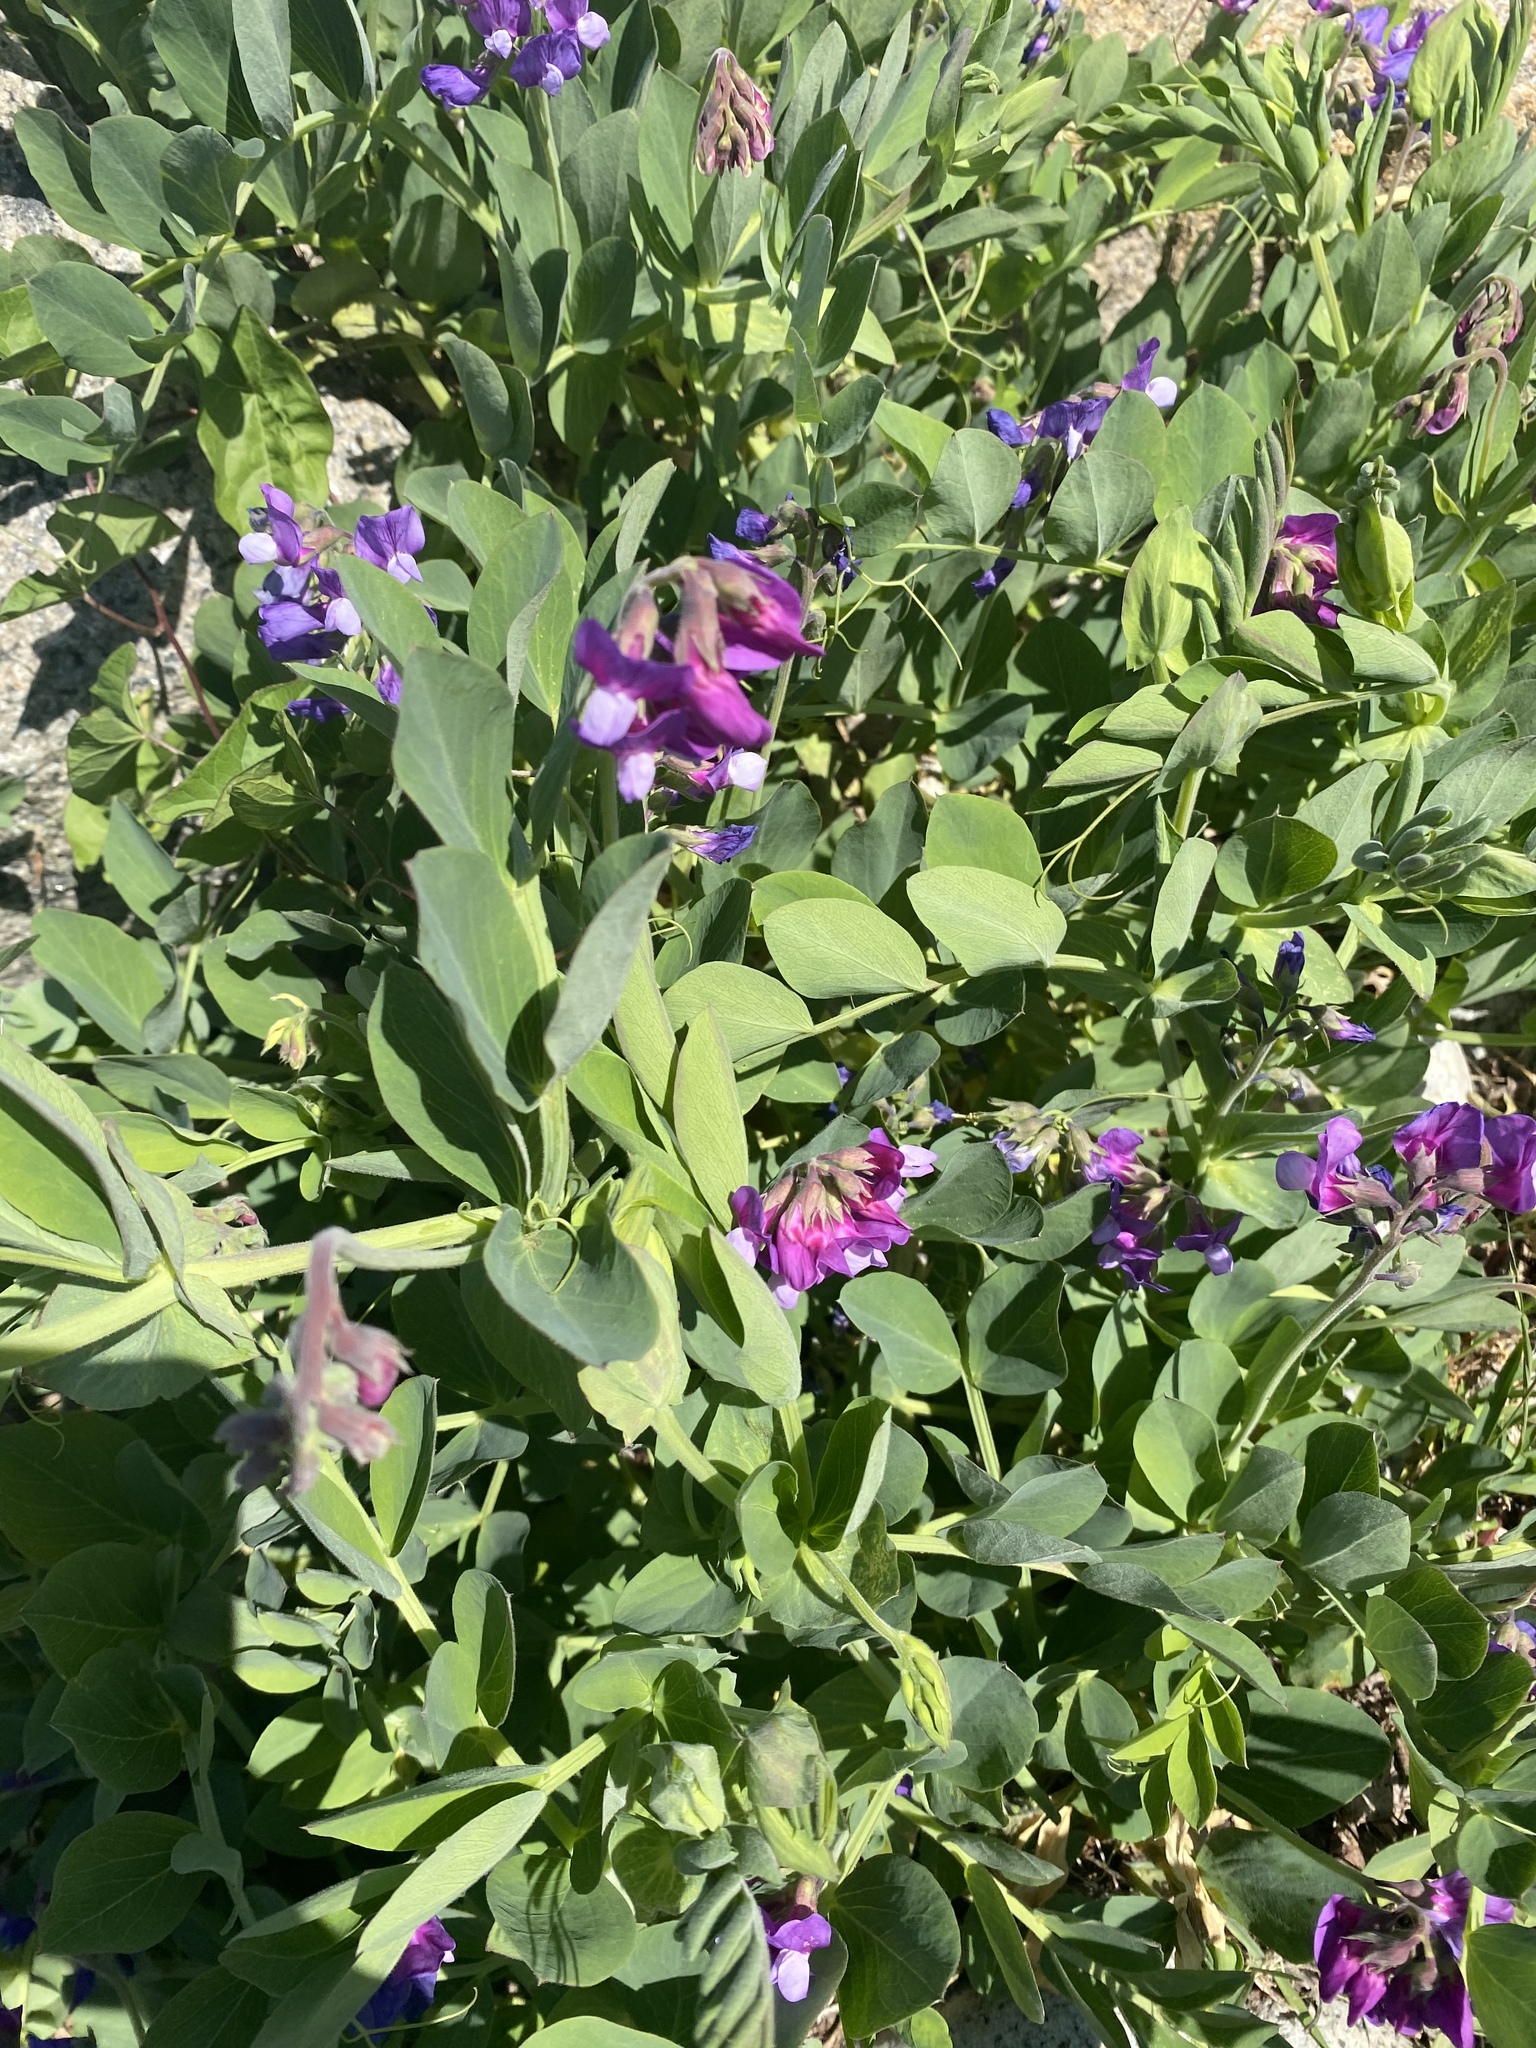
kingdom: Plantae
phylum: Tracheophyta
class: Magnoliopsida
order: Fabales
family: Fabaceae
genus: Lathyrus
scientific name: Lathyrus japonicus
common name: Sea pea
